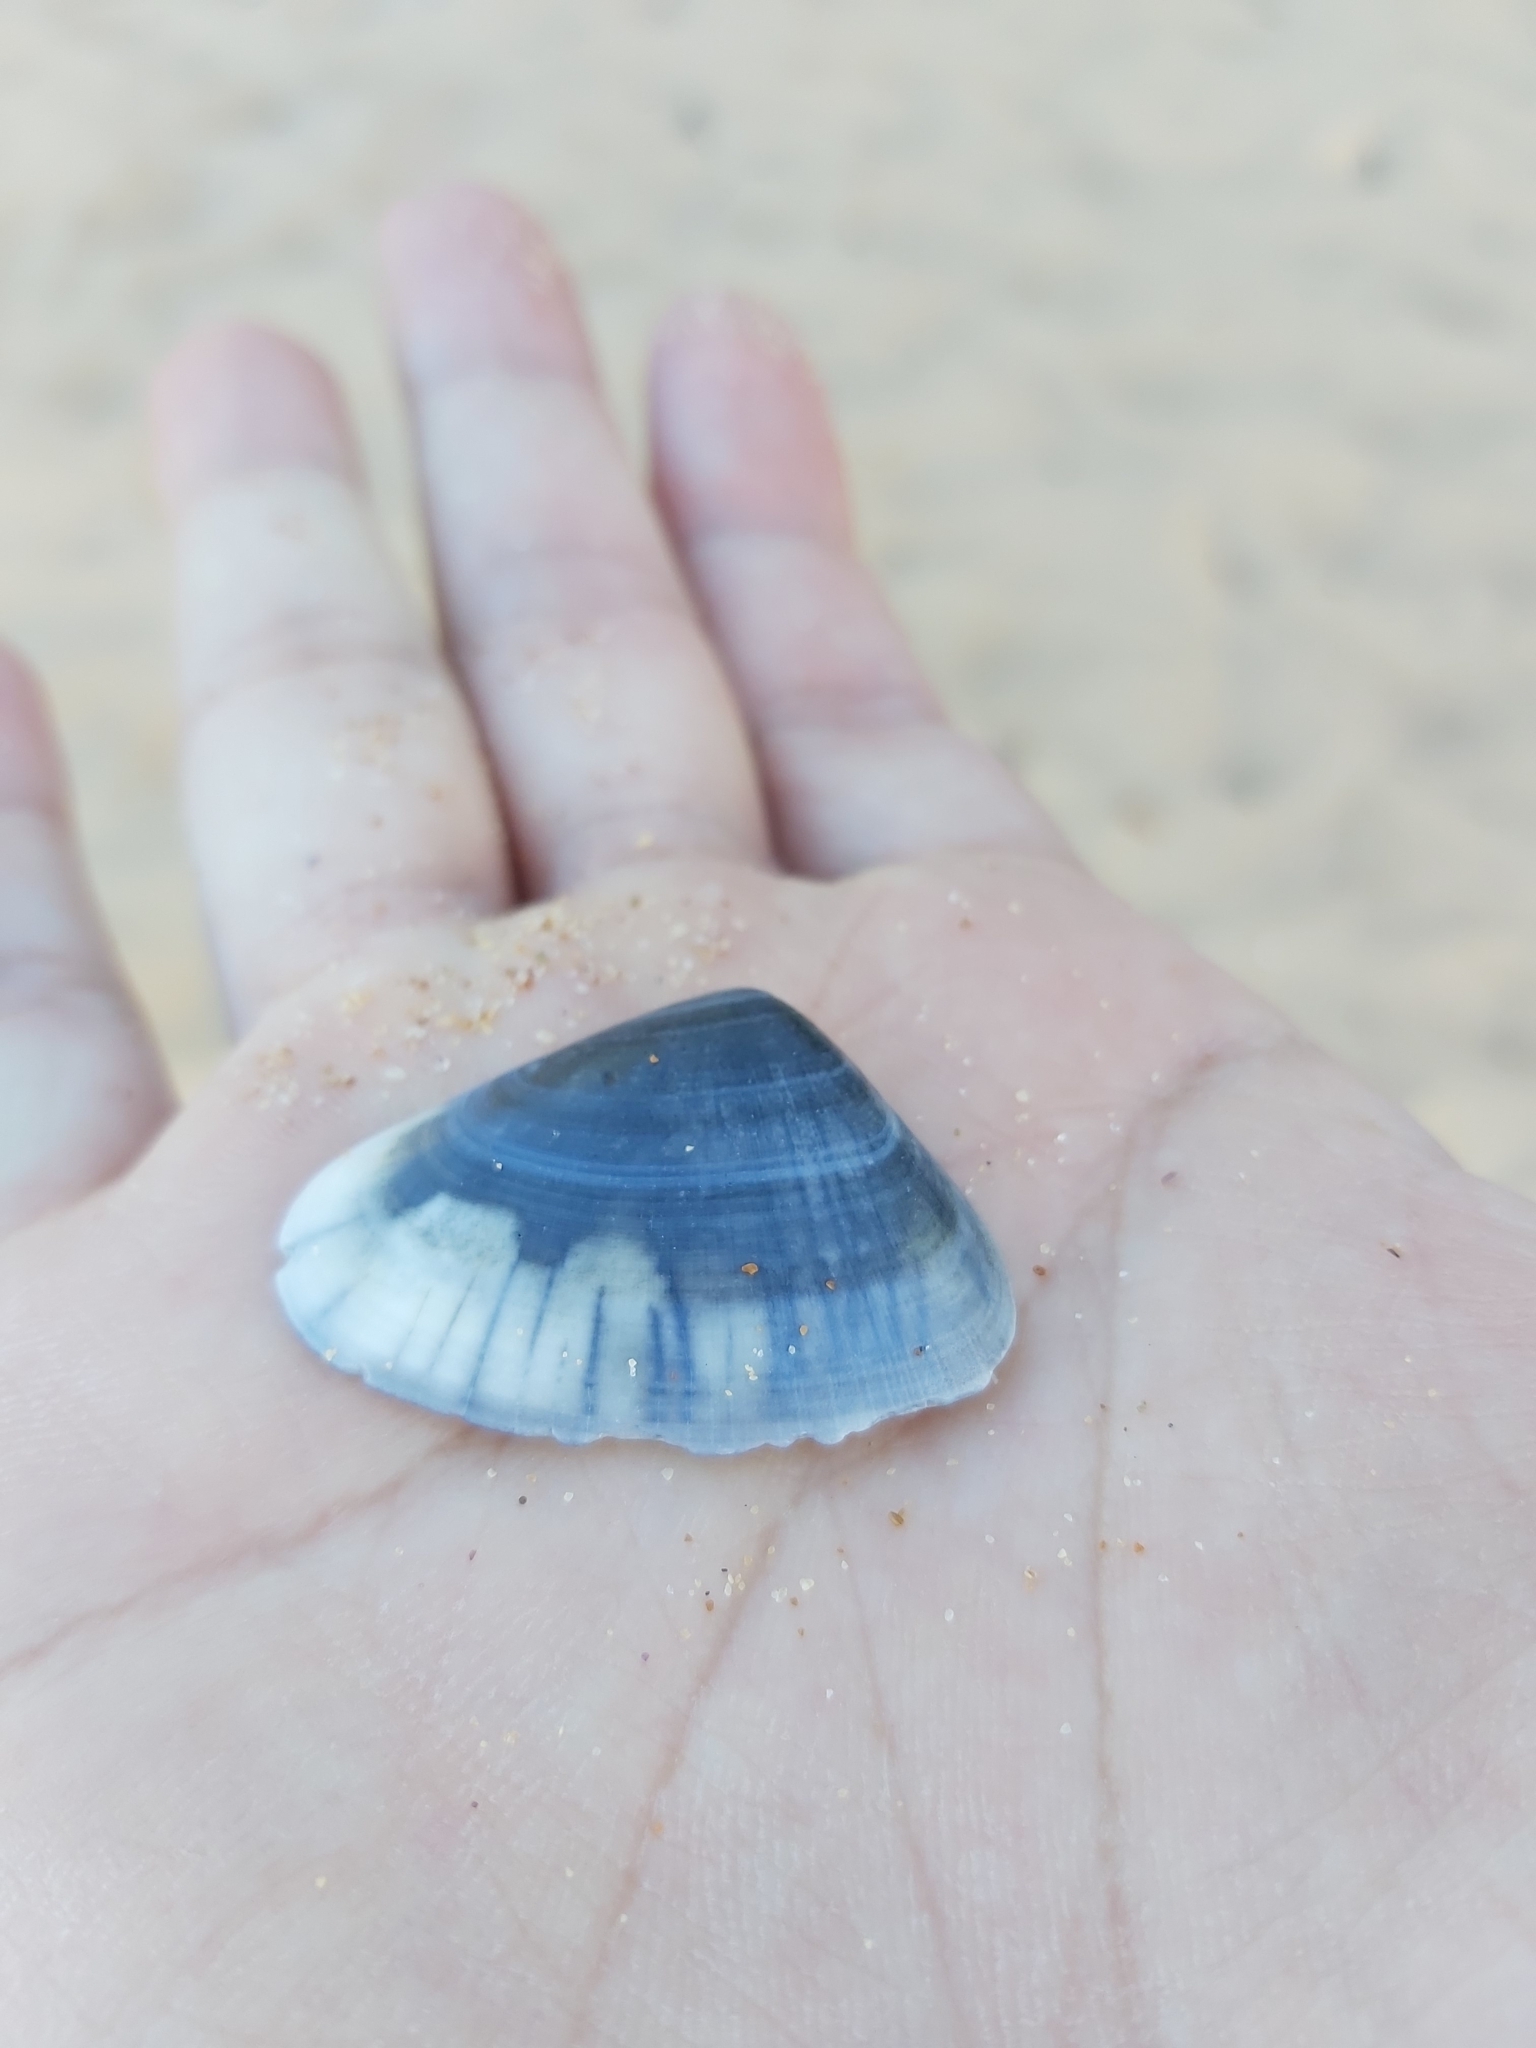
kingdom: Animalia
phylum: Mollusca
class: Bivalvia
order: Cardiida
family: Donacidae
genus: Latona
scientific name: Latona deltoides
